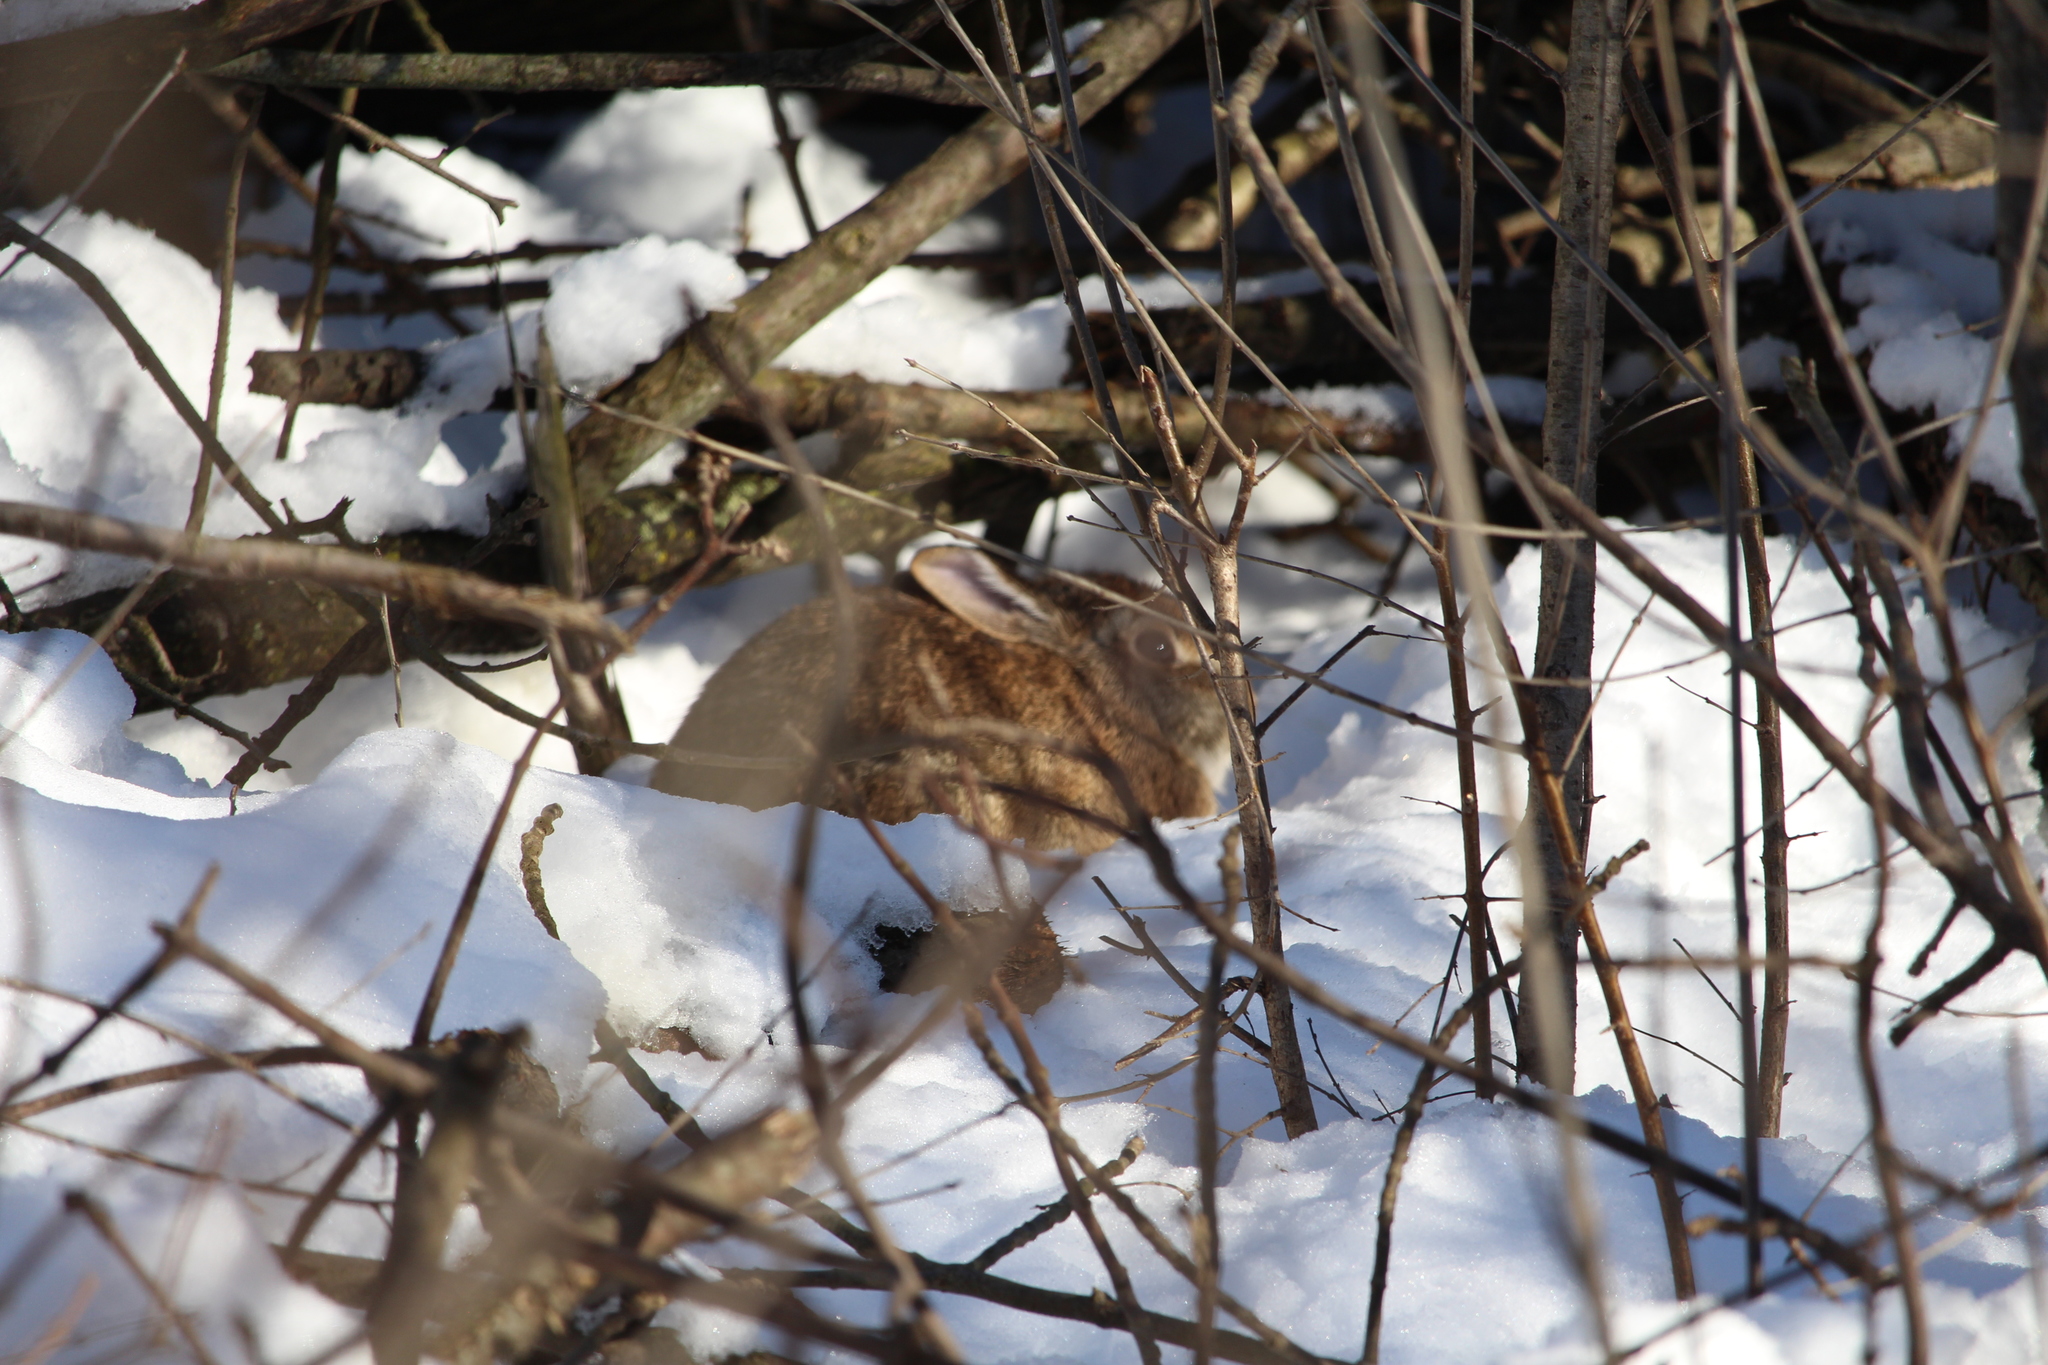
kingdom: Animalia
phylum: Chordata
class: Mammalia
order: Lagomorpha
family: Leporidae
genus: Sylvilagus
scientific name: Sylvilagus floridanus
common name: Eastern cottontail
